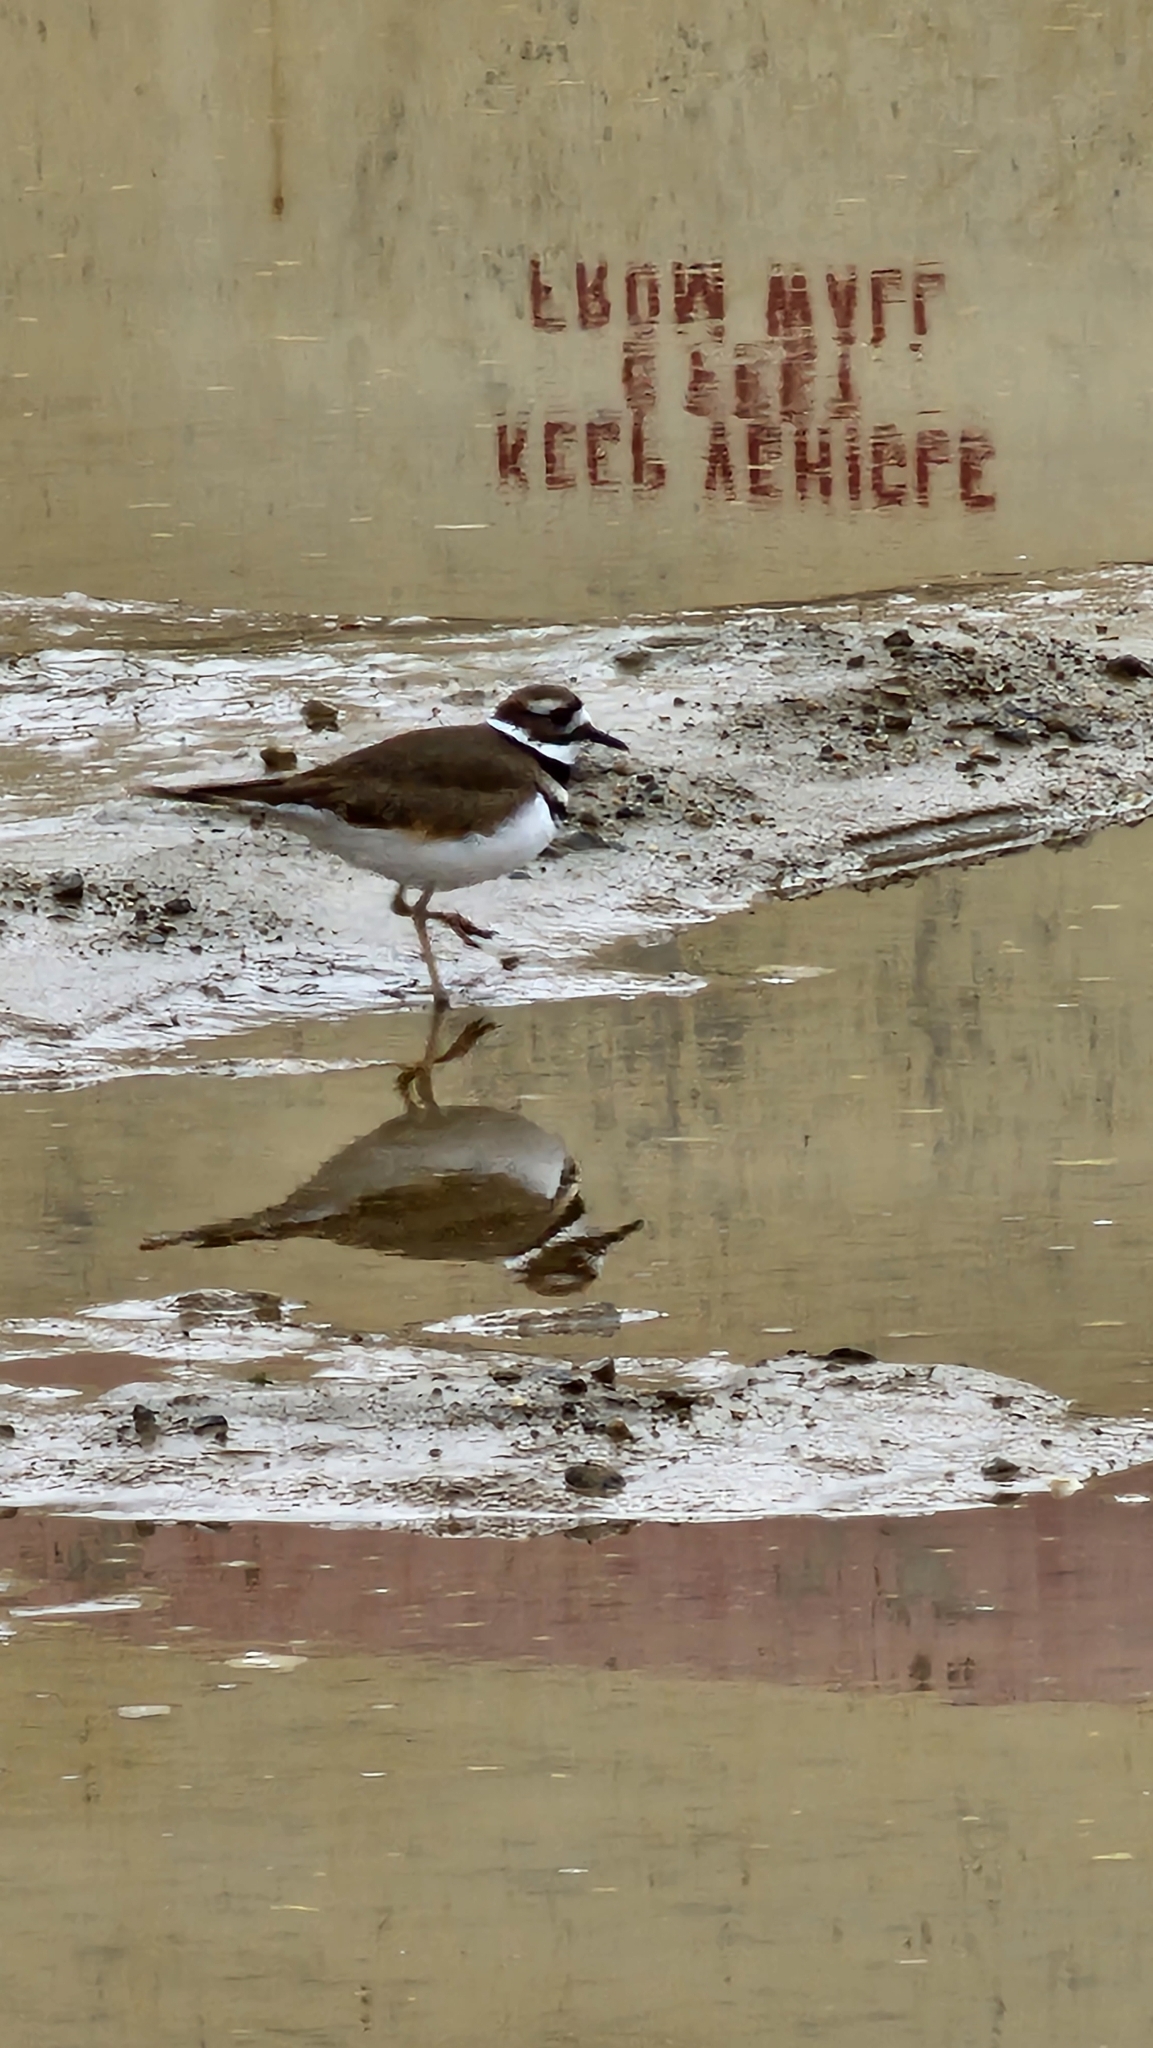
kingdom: Animalia
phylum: Chordata
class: Aves
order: Charadriiformes
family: Charadriidae
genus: Charadrius
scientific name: Charadrius vociferus
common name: Killdeer
